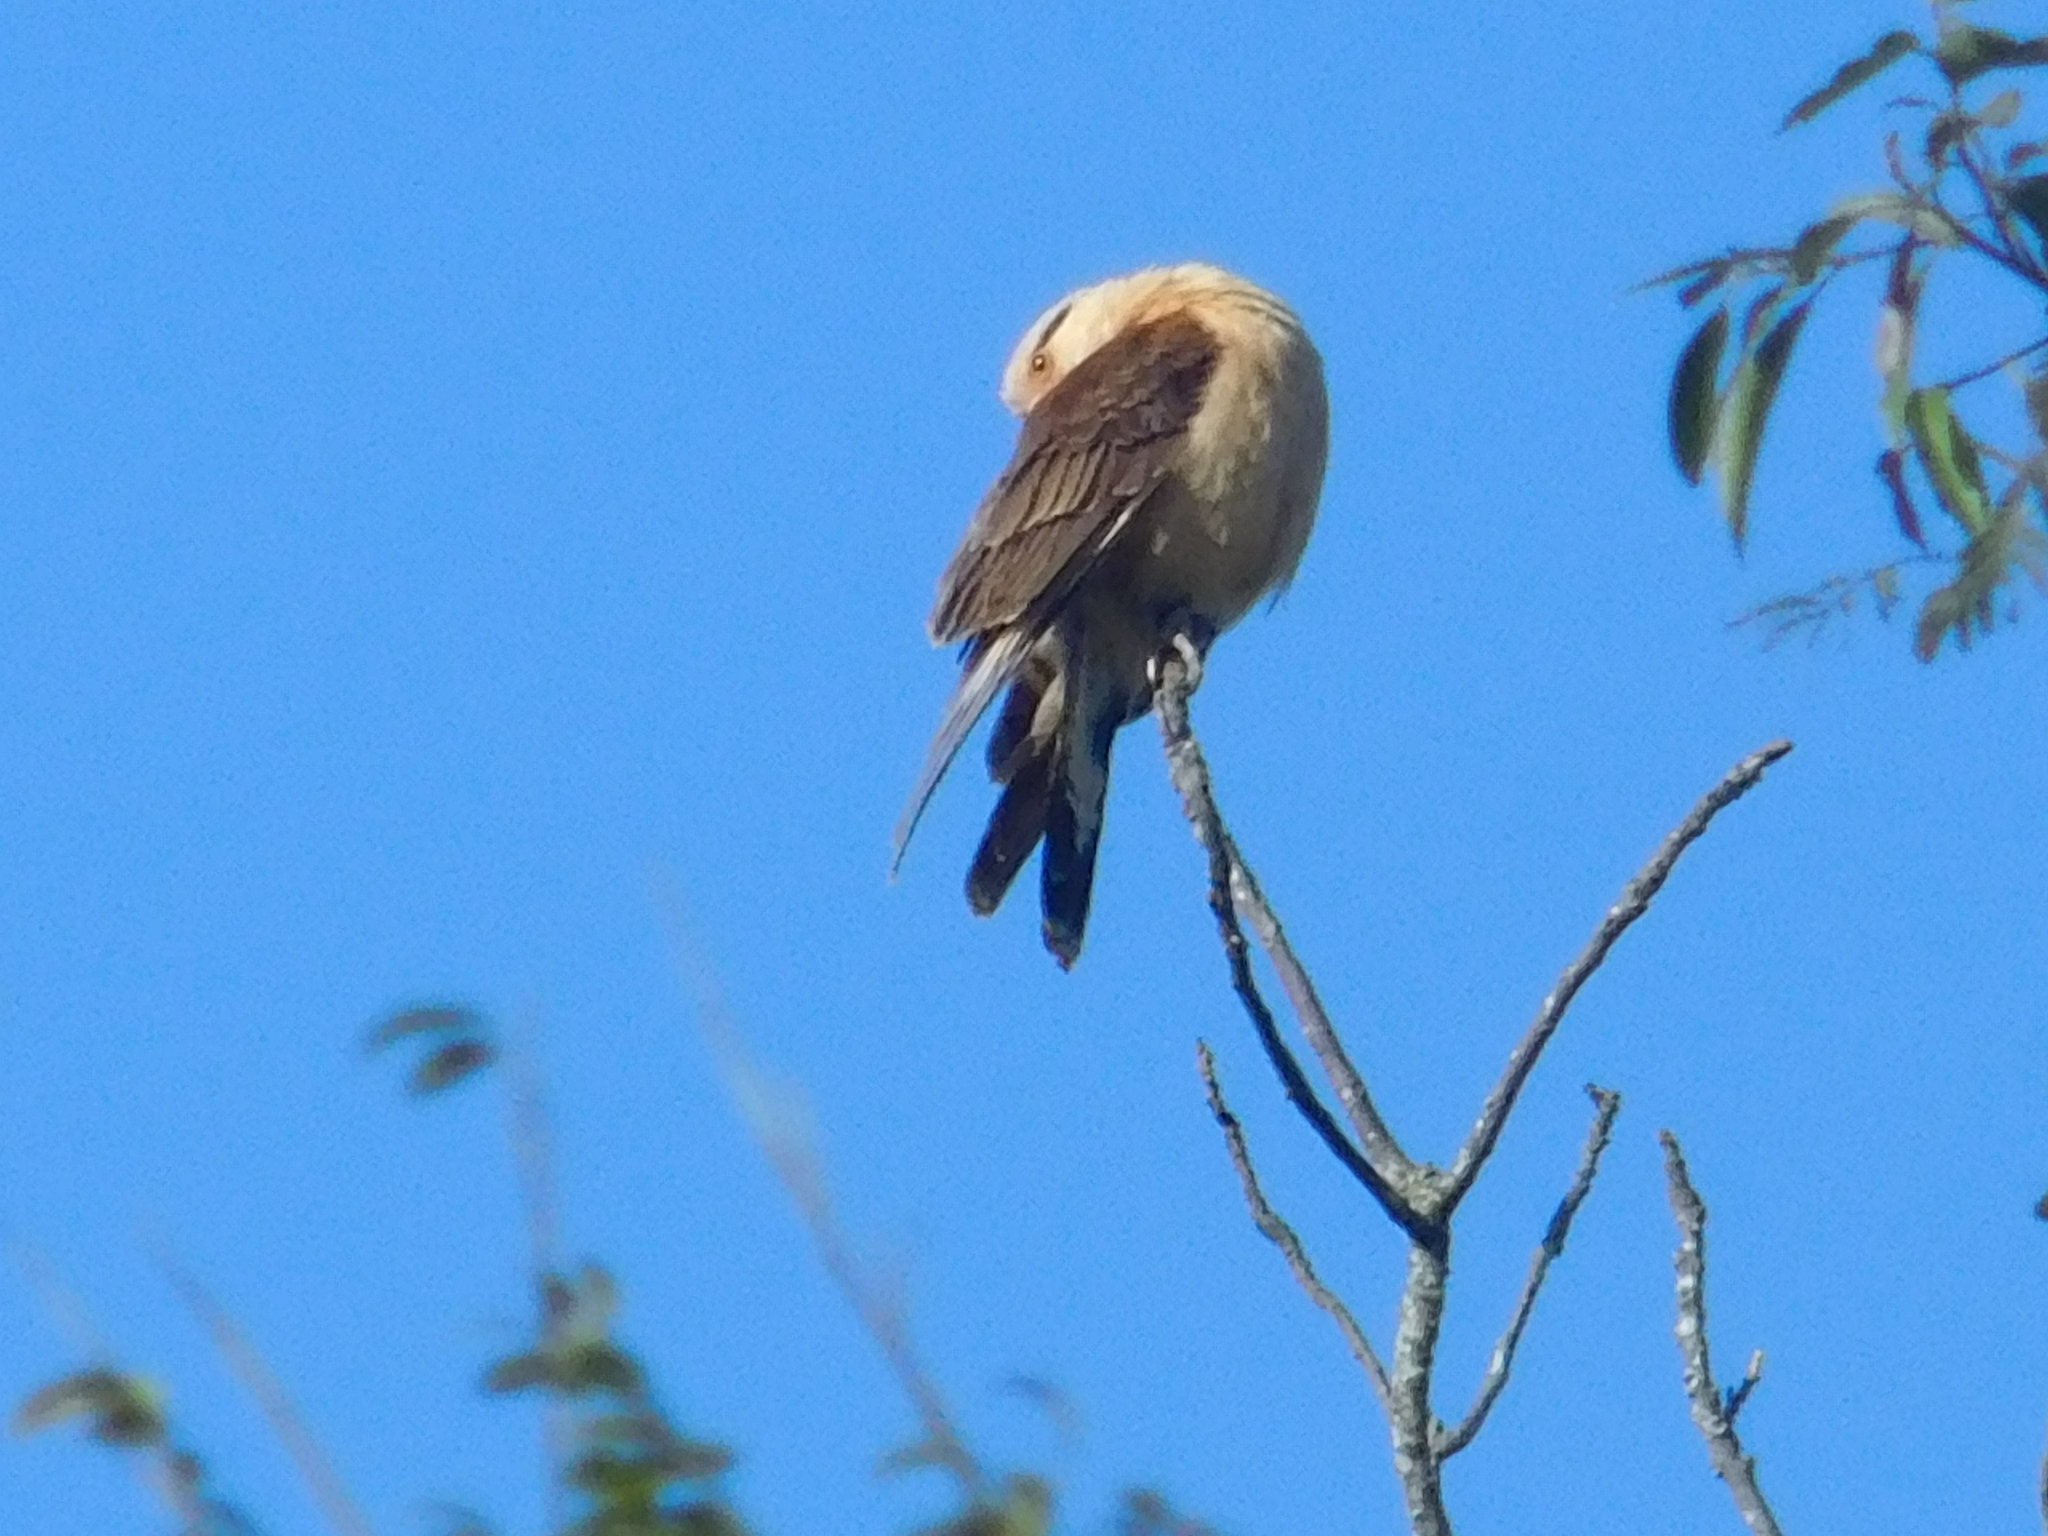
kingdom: Animalia
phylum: Chordata
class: Aves
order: Falconiformes
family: Falconidae
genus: Daptrius
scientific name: Daptrius
